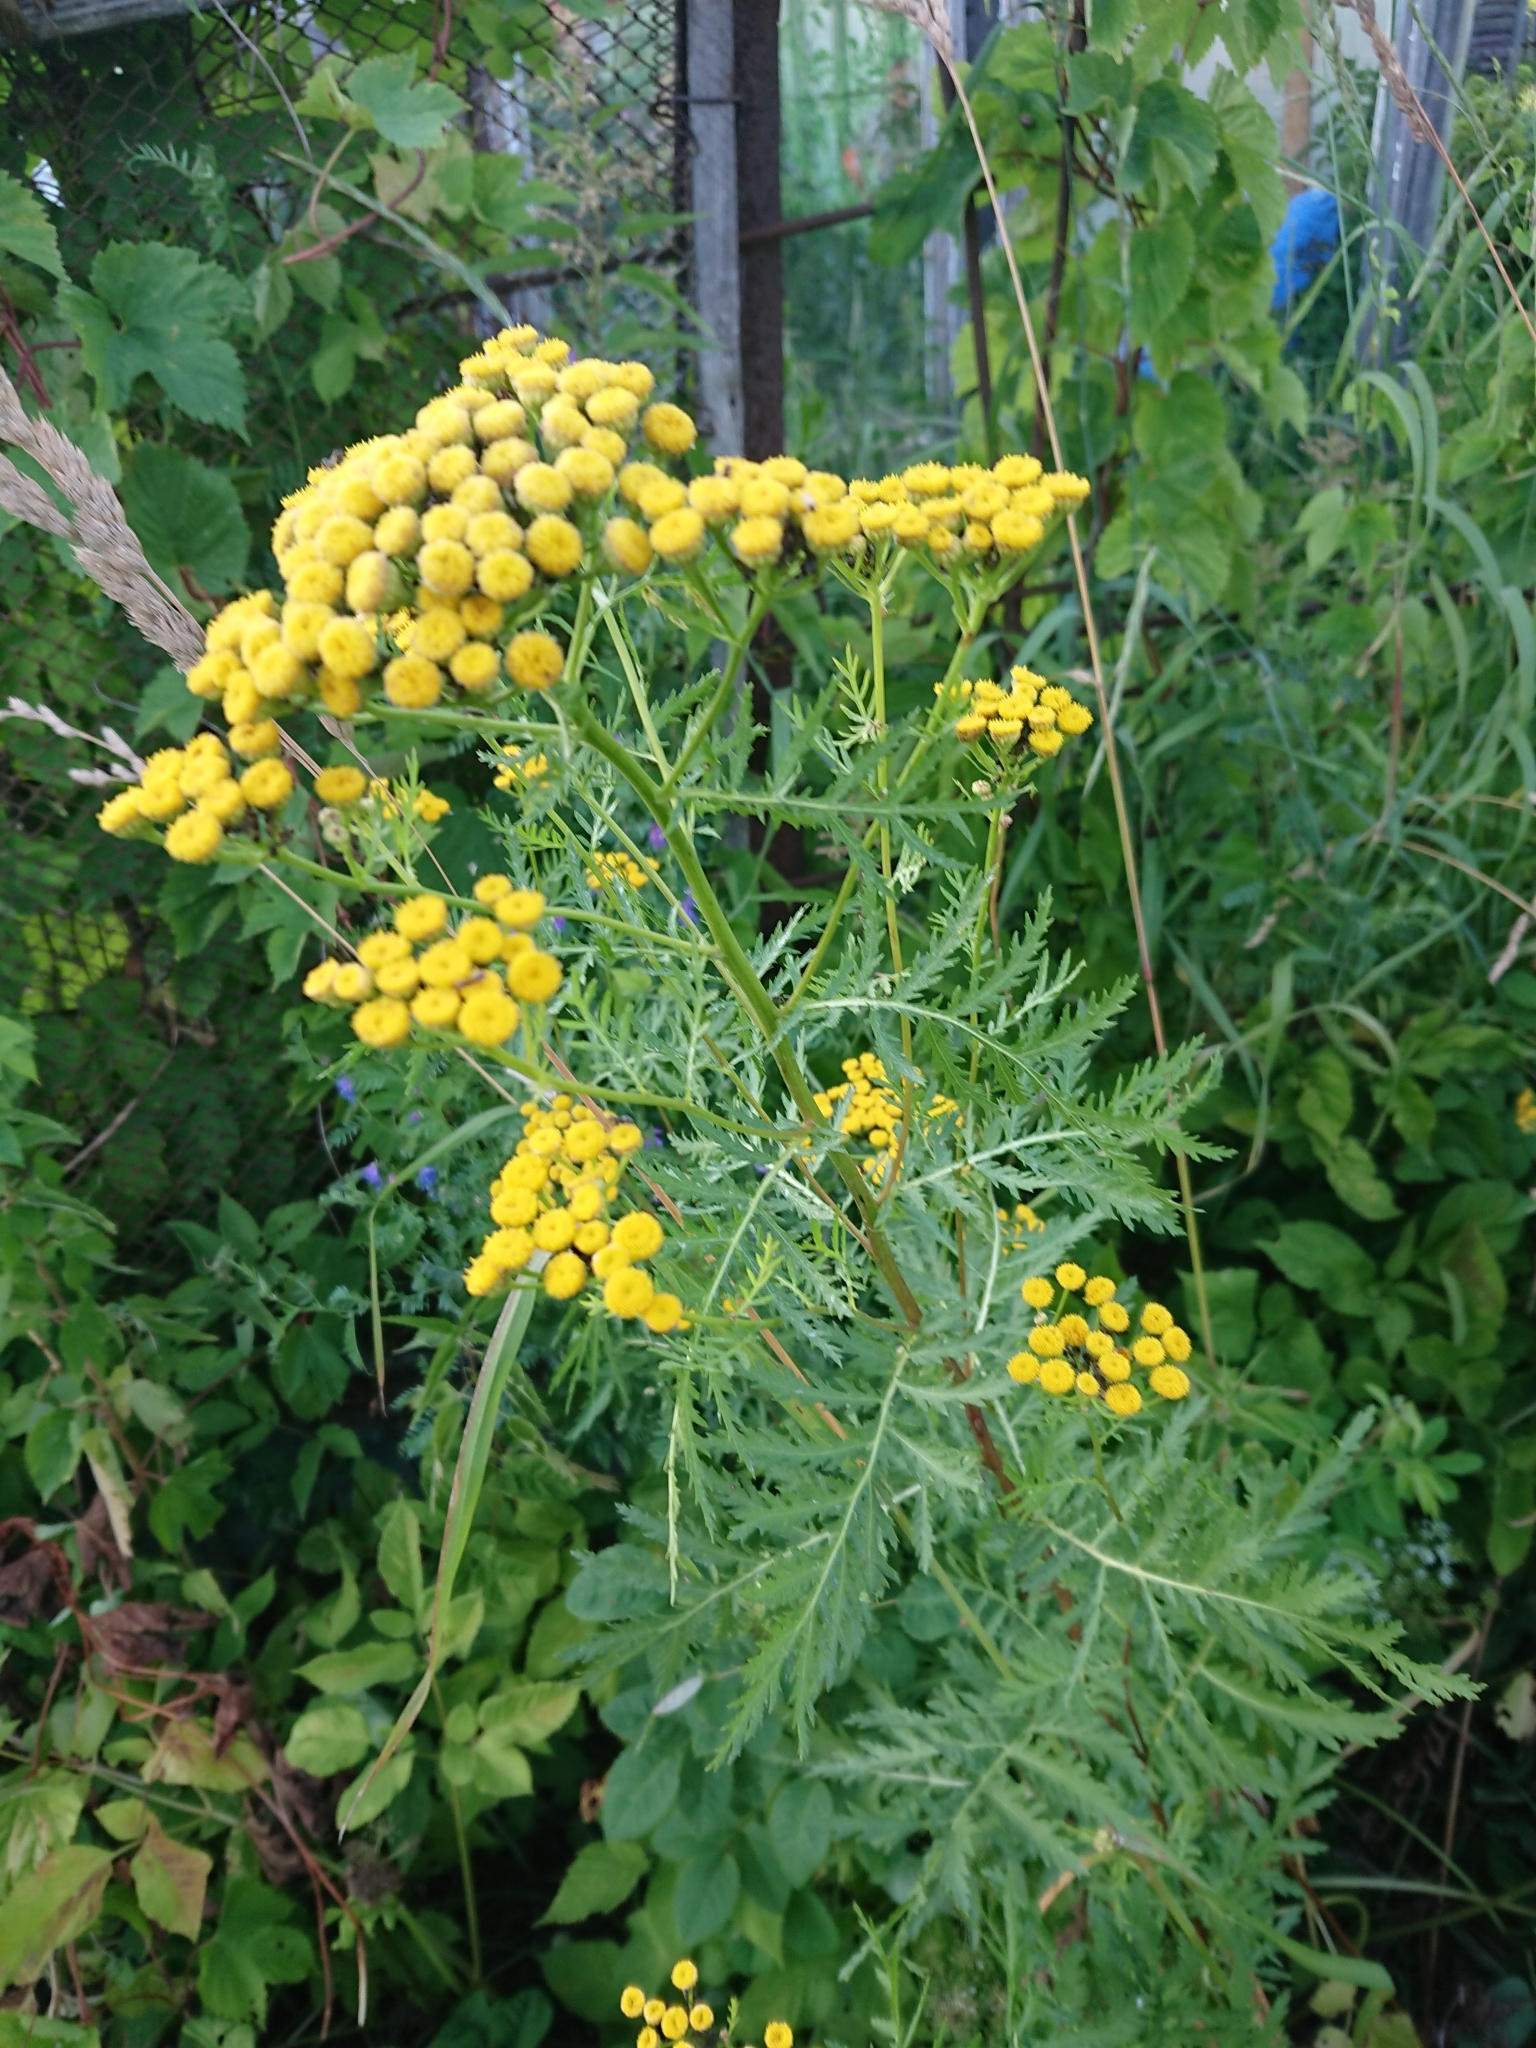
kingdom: Plantae
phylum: Tracheophyta
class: Magnoliopsida
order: Asterales
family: Asteraceae
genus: Tanacetum
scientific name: Tanacetum vulgare
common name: Common tansy
